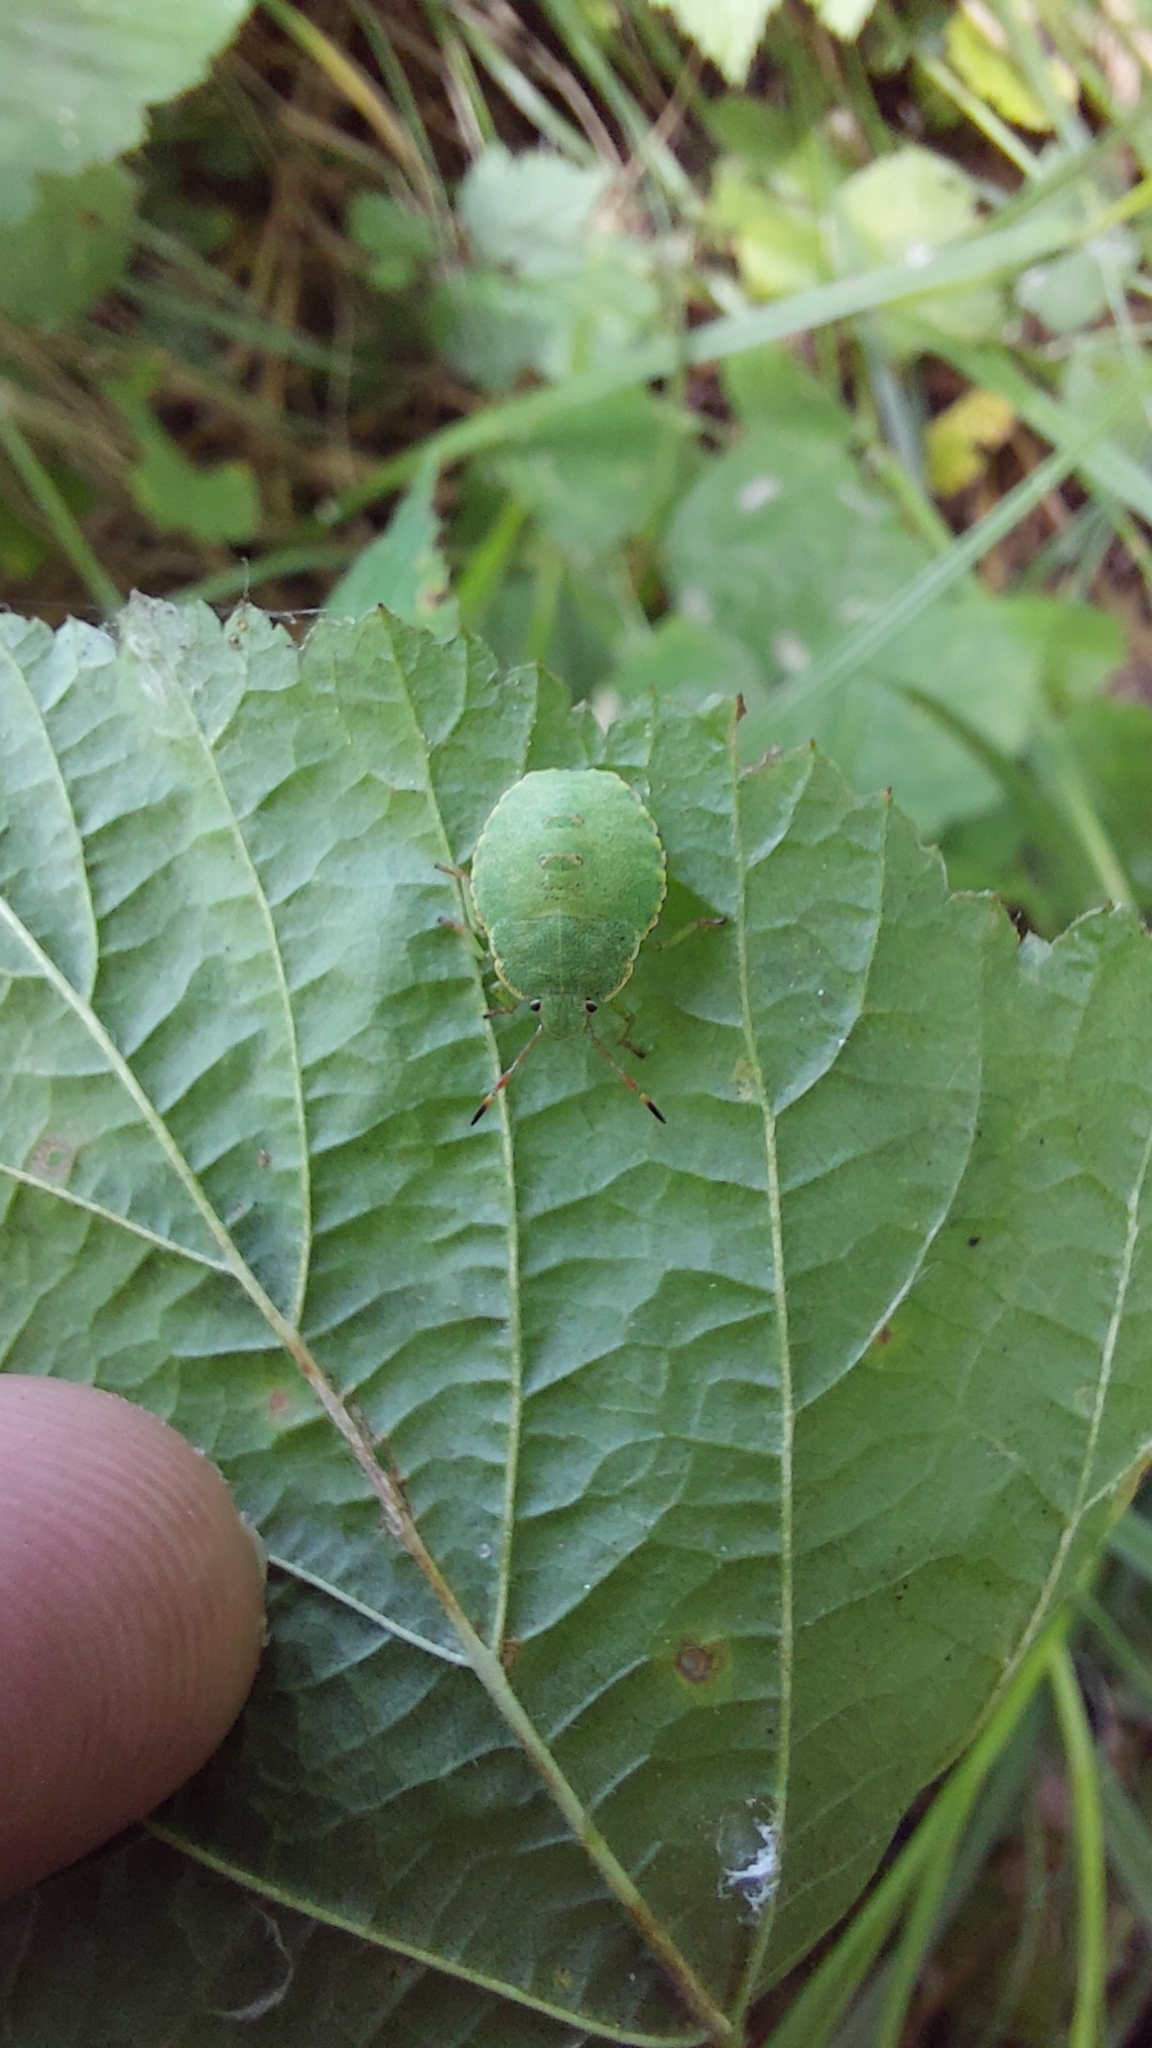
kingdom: Animalia
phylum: Arthropoda
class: Insecta
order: Hemiptera
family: Pentatomidae
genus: Palomena
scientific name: Palomena prasina
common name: Green shieldbug
